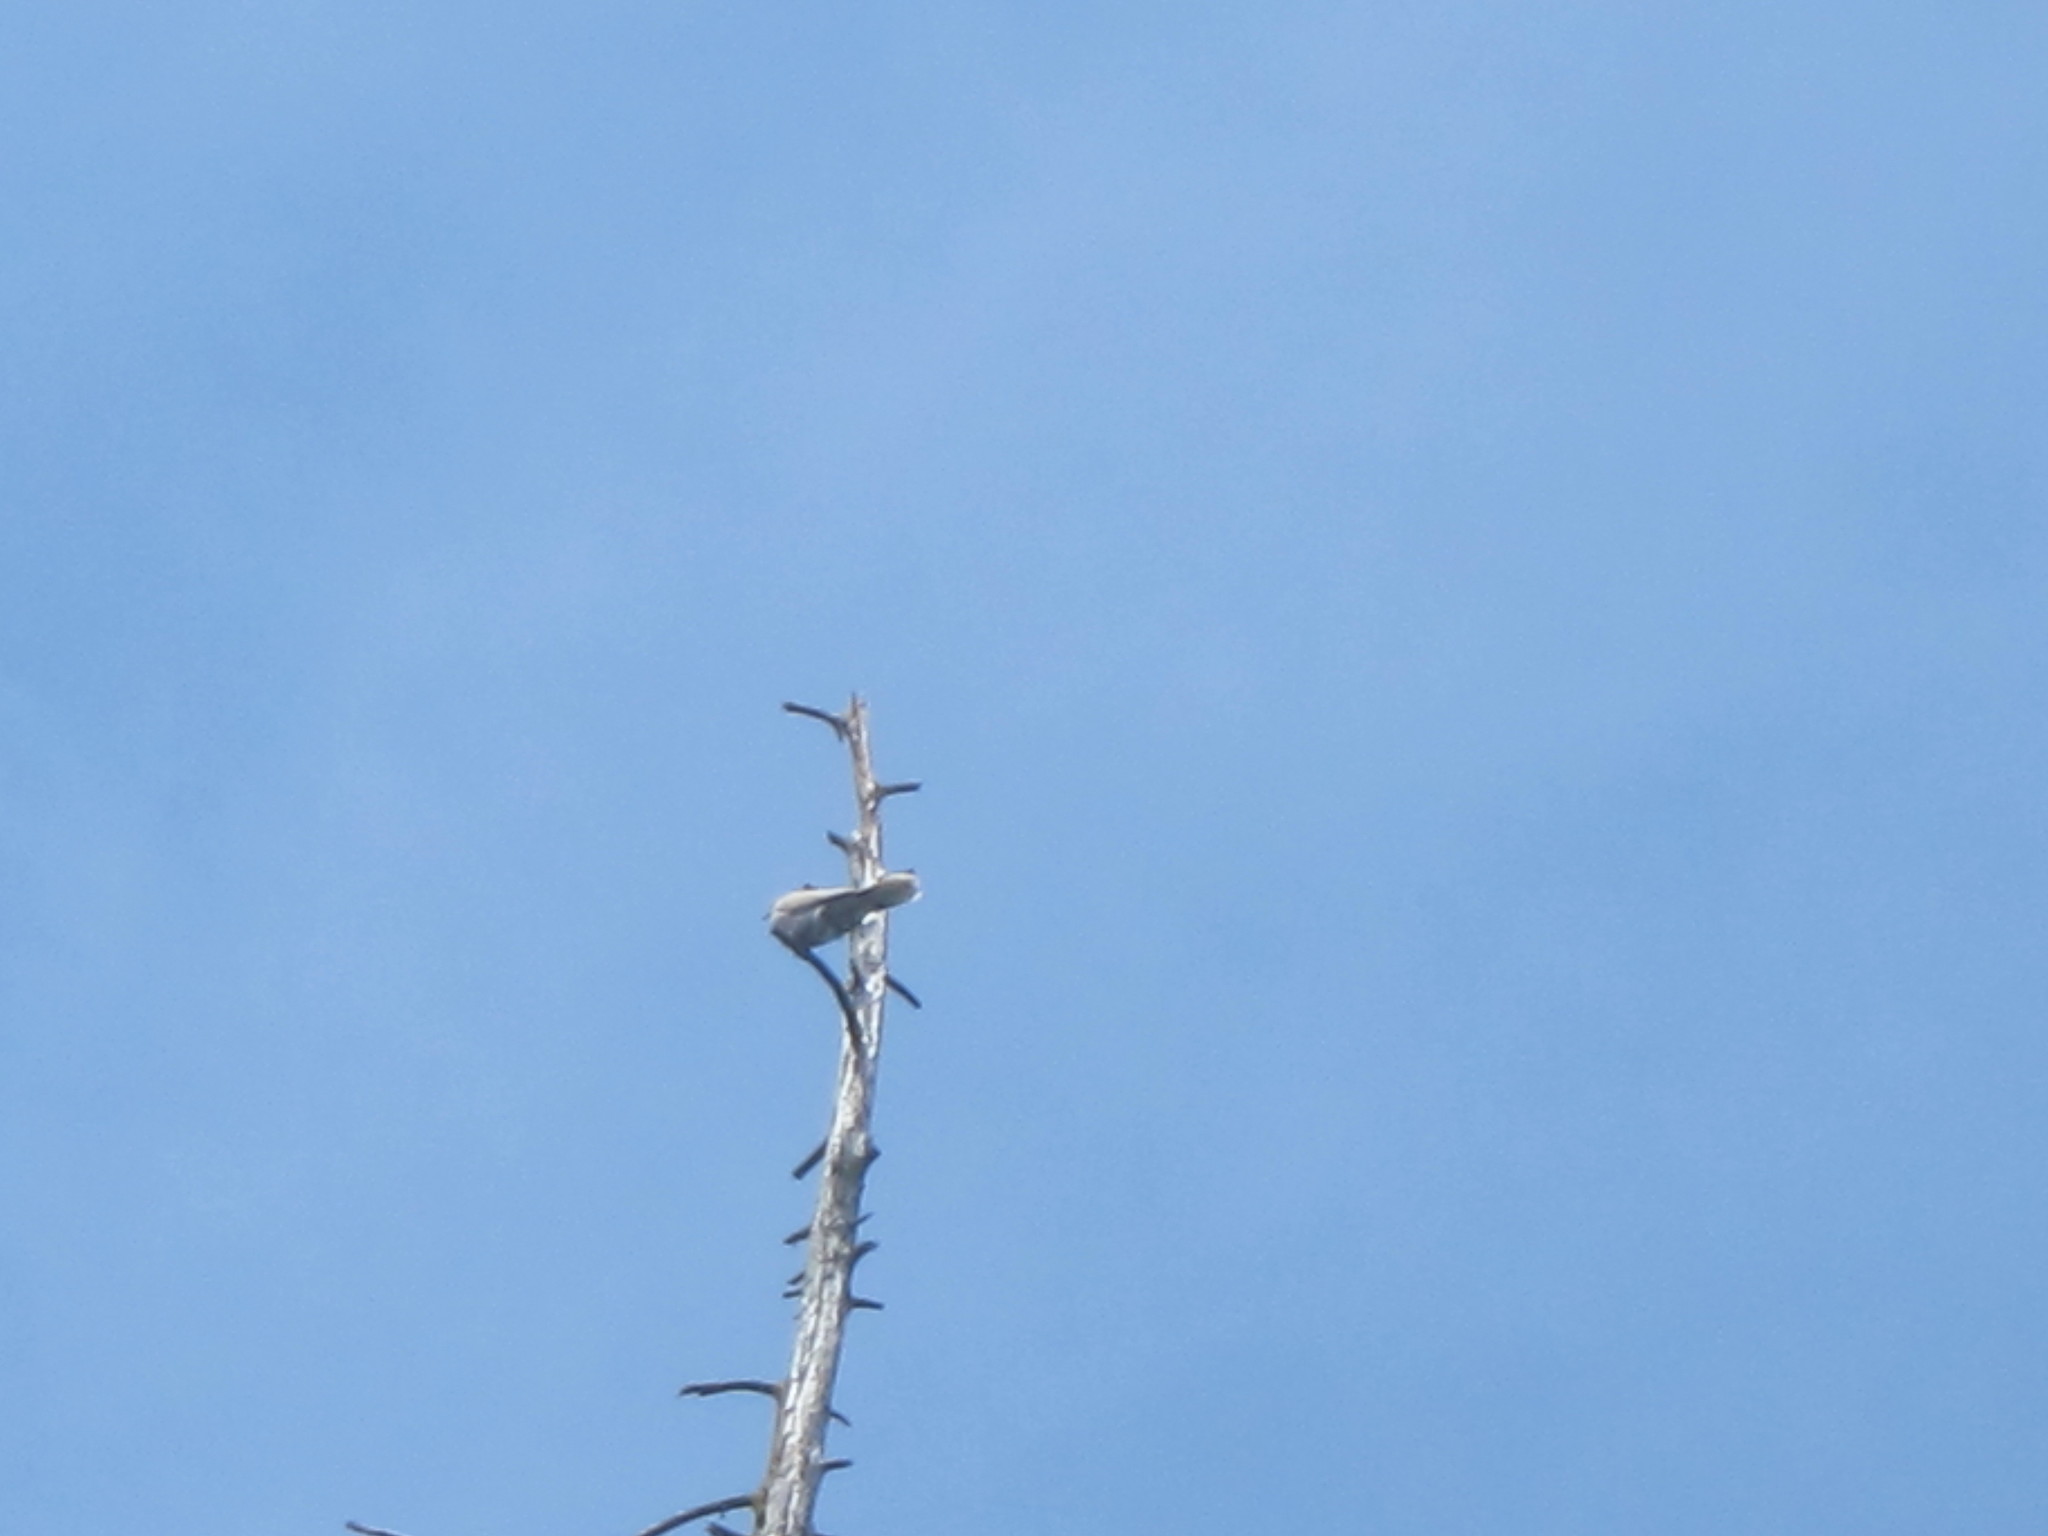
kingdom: Animalia
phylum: Chordata
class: Aves
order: Columbiformes
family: Columbidae
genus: Streptopelia
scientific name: Streptopelia decaocto
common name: Eurasian collared dove
